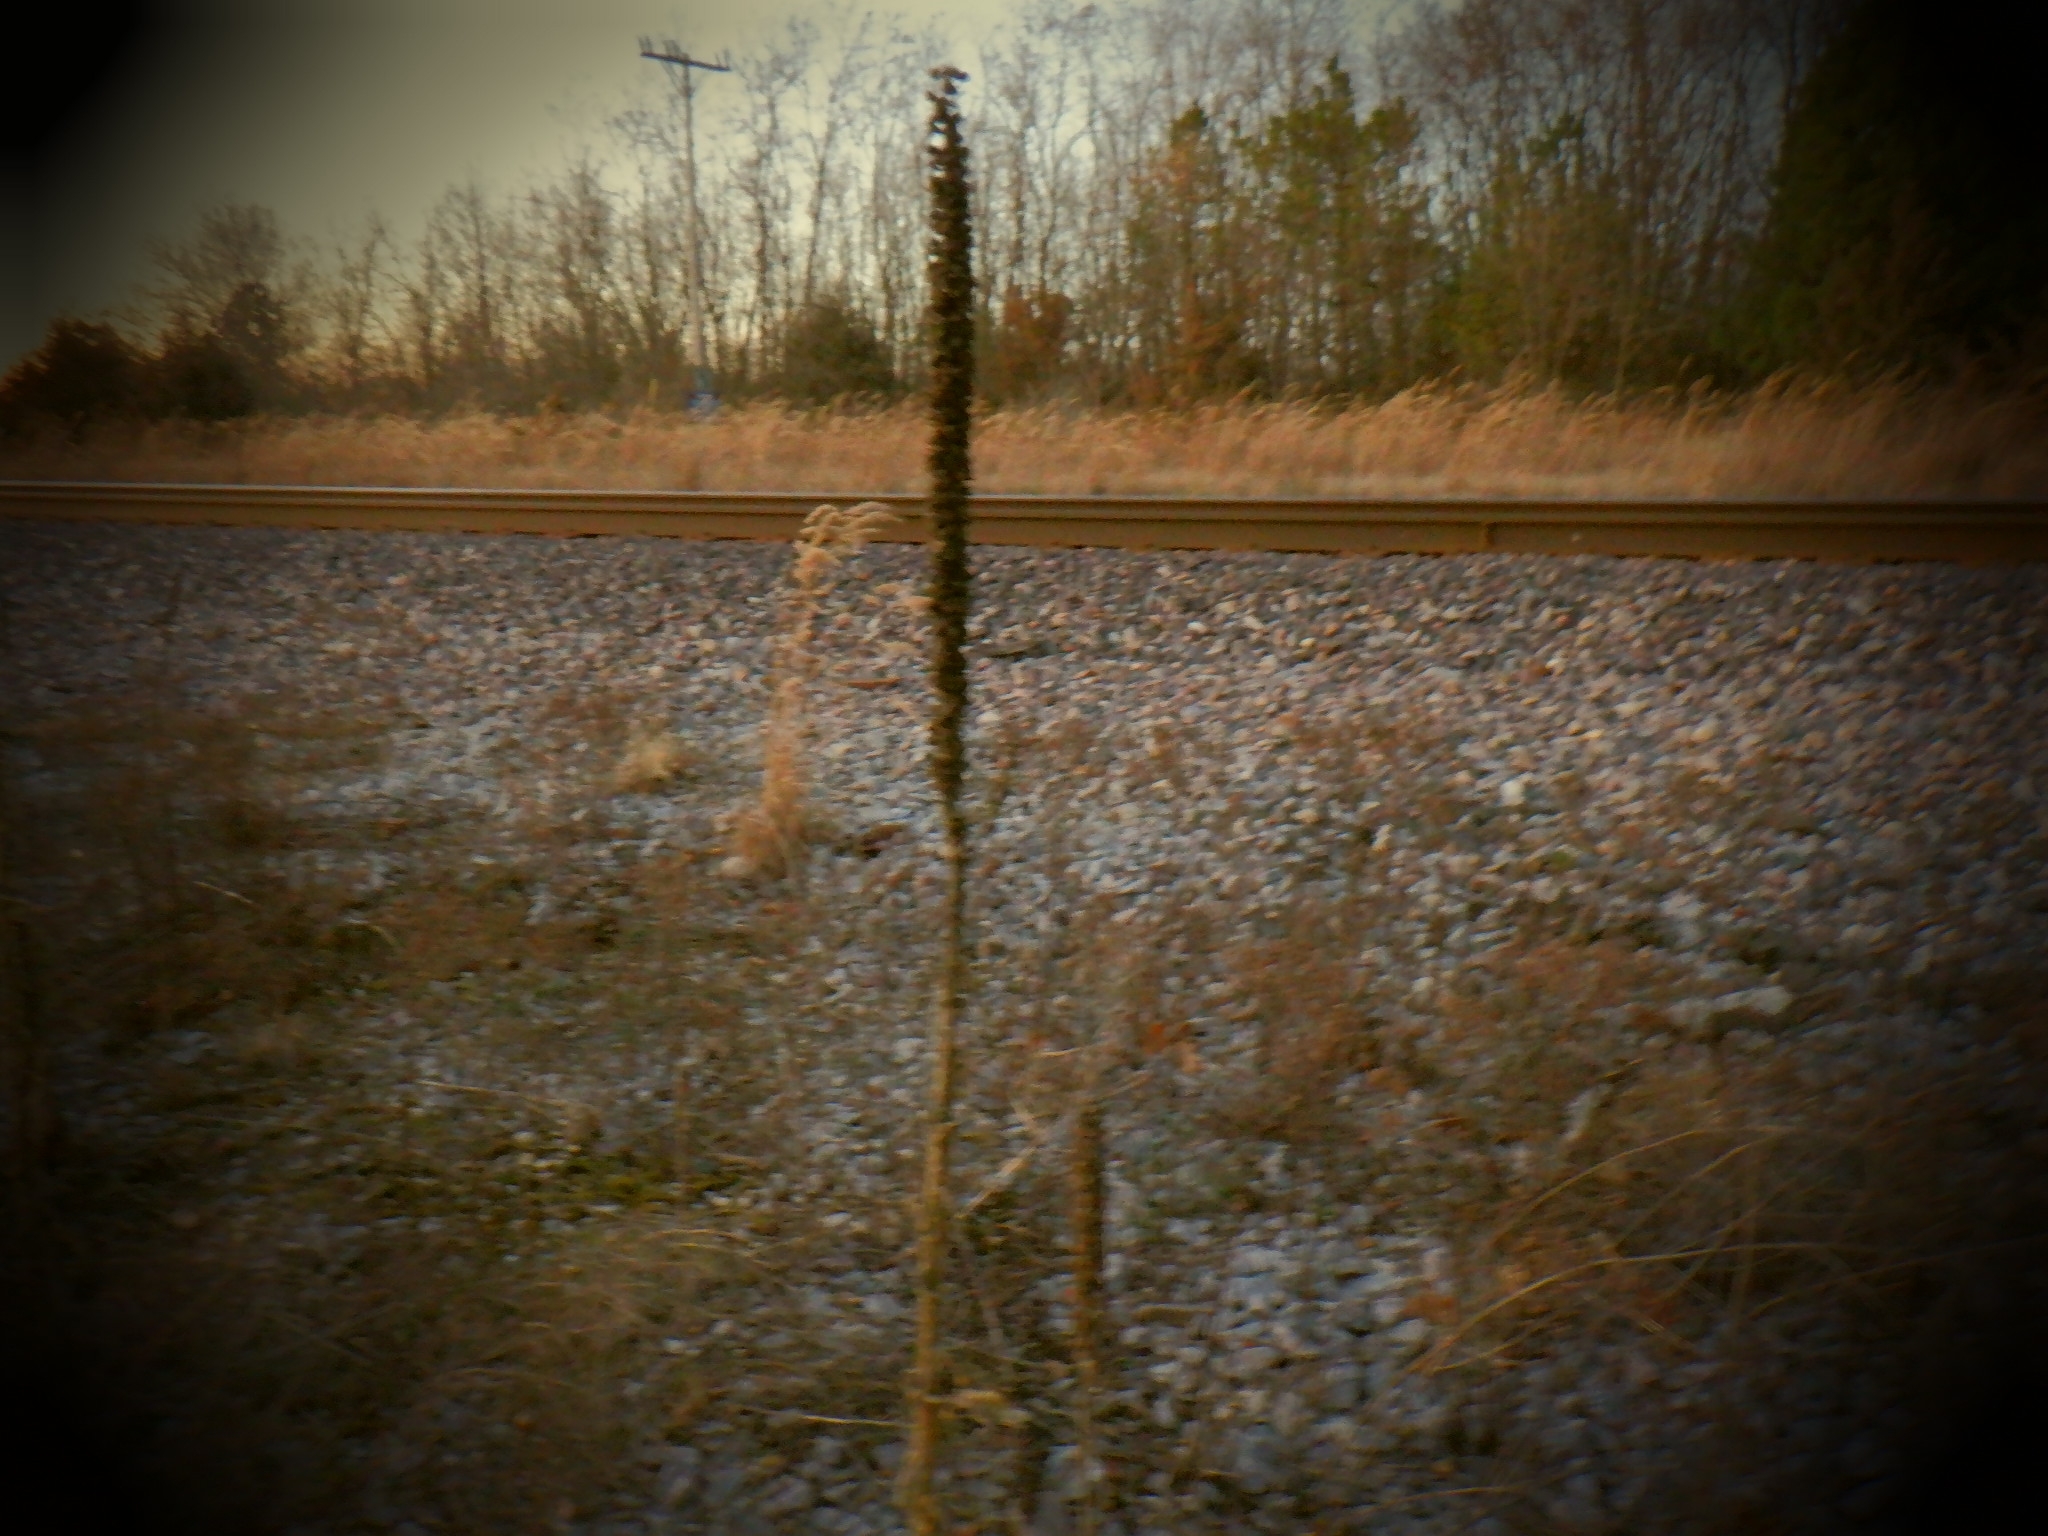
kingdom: Plantae
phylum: Tracheophyta
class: Magnoliopsida
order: Lamiales
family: Scrophulariaceae
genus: Verbascum
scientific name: Verbascum thapsus
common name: Common mullein
